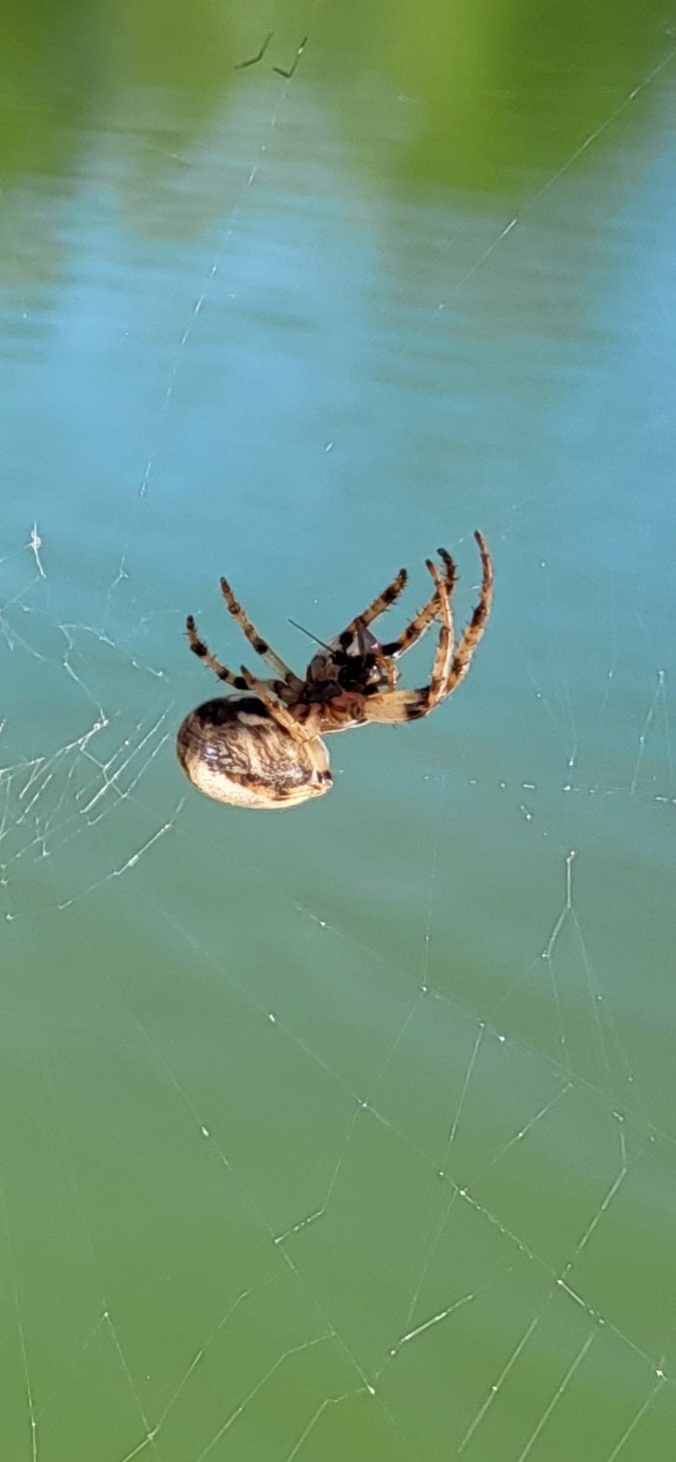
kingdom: Animalia
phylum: Arthropoda
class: Arachnida
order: Araneae
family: Araneidae
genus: Larinioides
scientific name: Larinioides cornutus
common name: Furrow orbweaver
